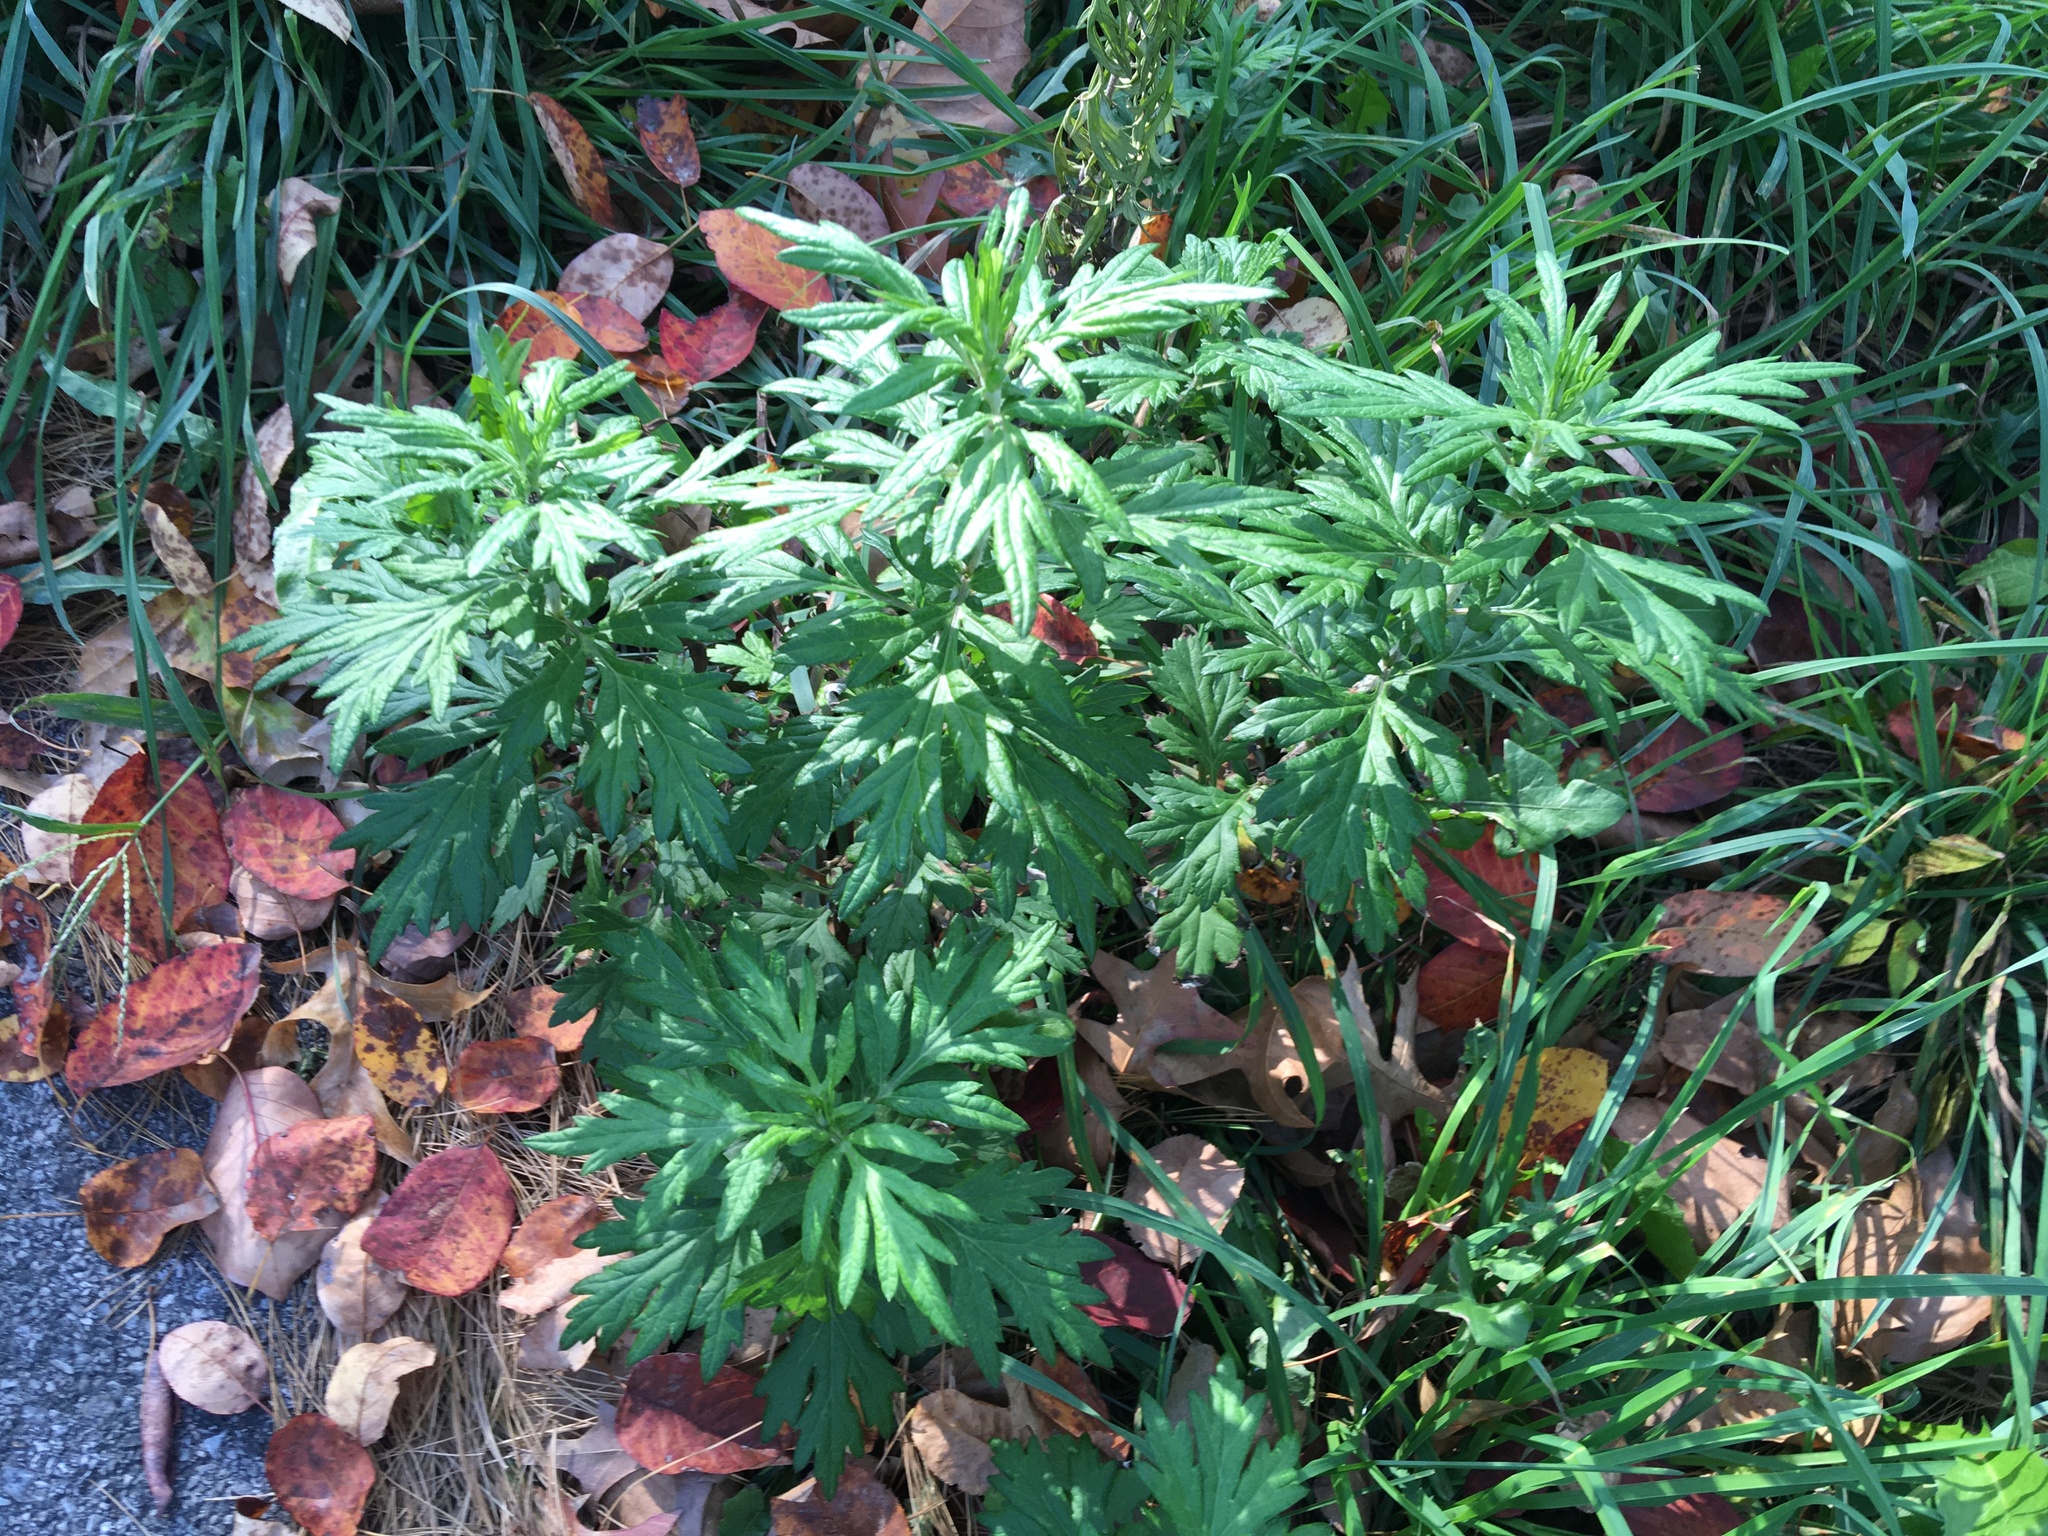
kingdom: Plantae
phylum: Tracheophyta
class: Magnoliopsida
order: Asterales
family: Asteraceae
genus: Artemisia
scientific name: Artemisia vulgaris
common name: Mugwort
